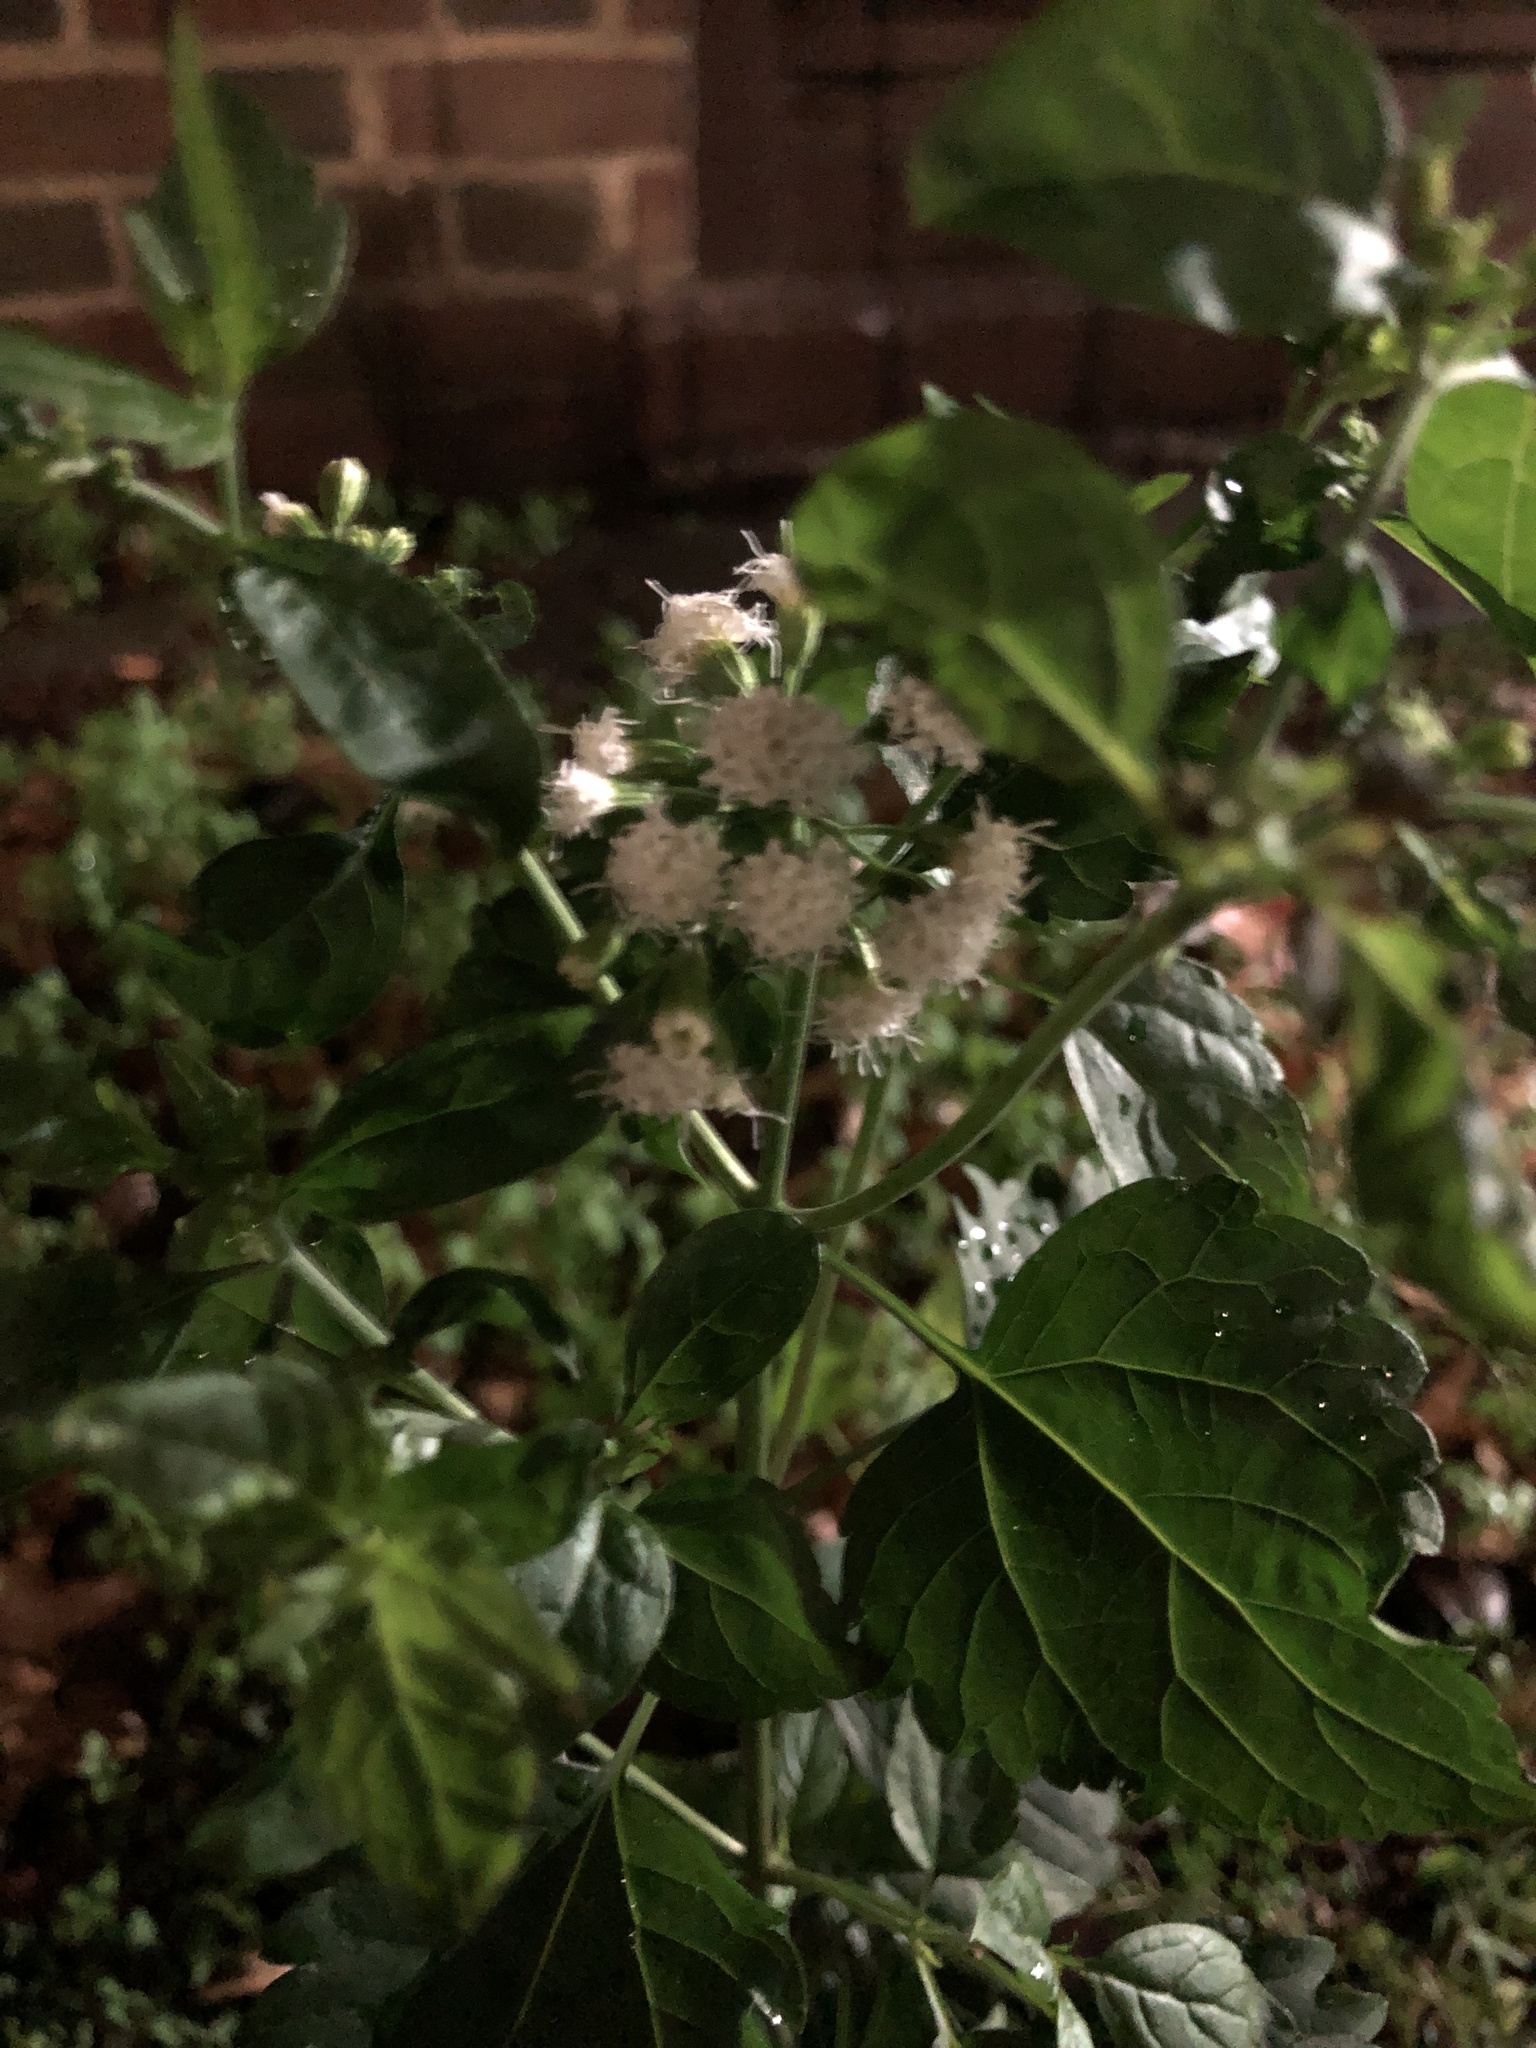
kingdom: Plantae
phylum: Tracheophyta
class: Magnoliopsida
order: Asterales
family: Asteraceae
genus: Ageratina
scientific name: Ageratina altissima
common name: White snakeroot
